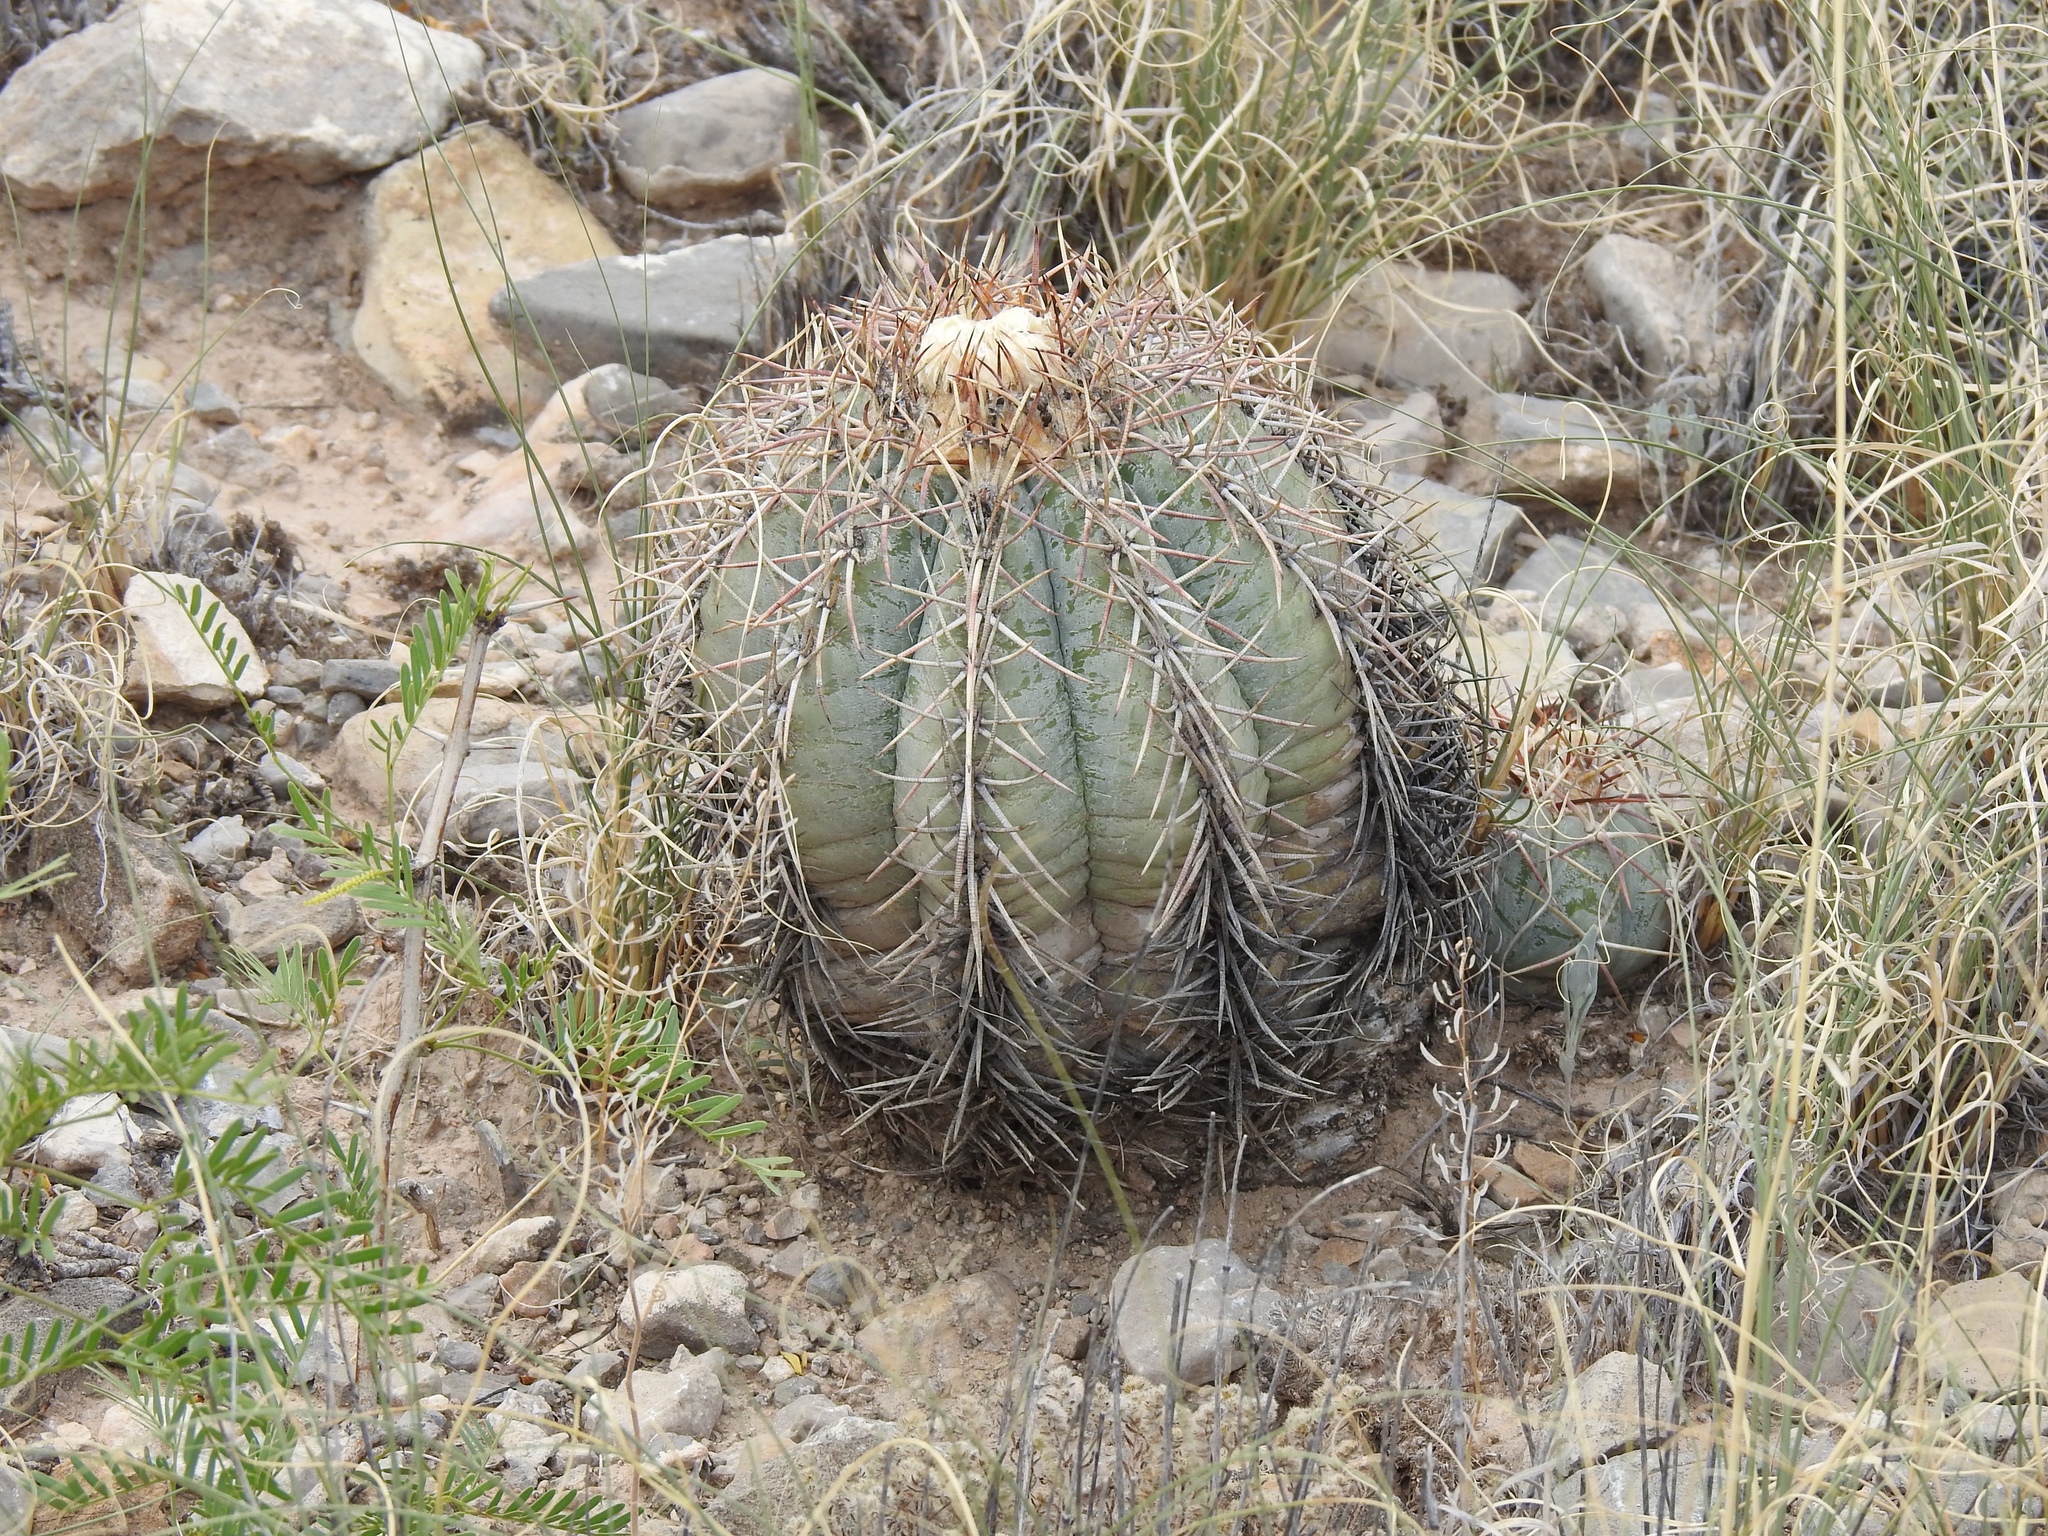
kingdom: Plantae
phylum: Tracheophyta
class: Magnoliopsida
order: Caryophyllales
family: Cactaceae
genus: Echinocactus
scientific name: Echinocactus horizonthalonius
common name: Devilshead
